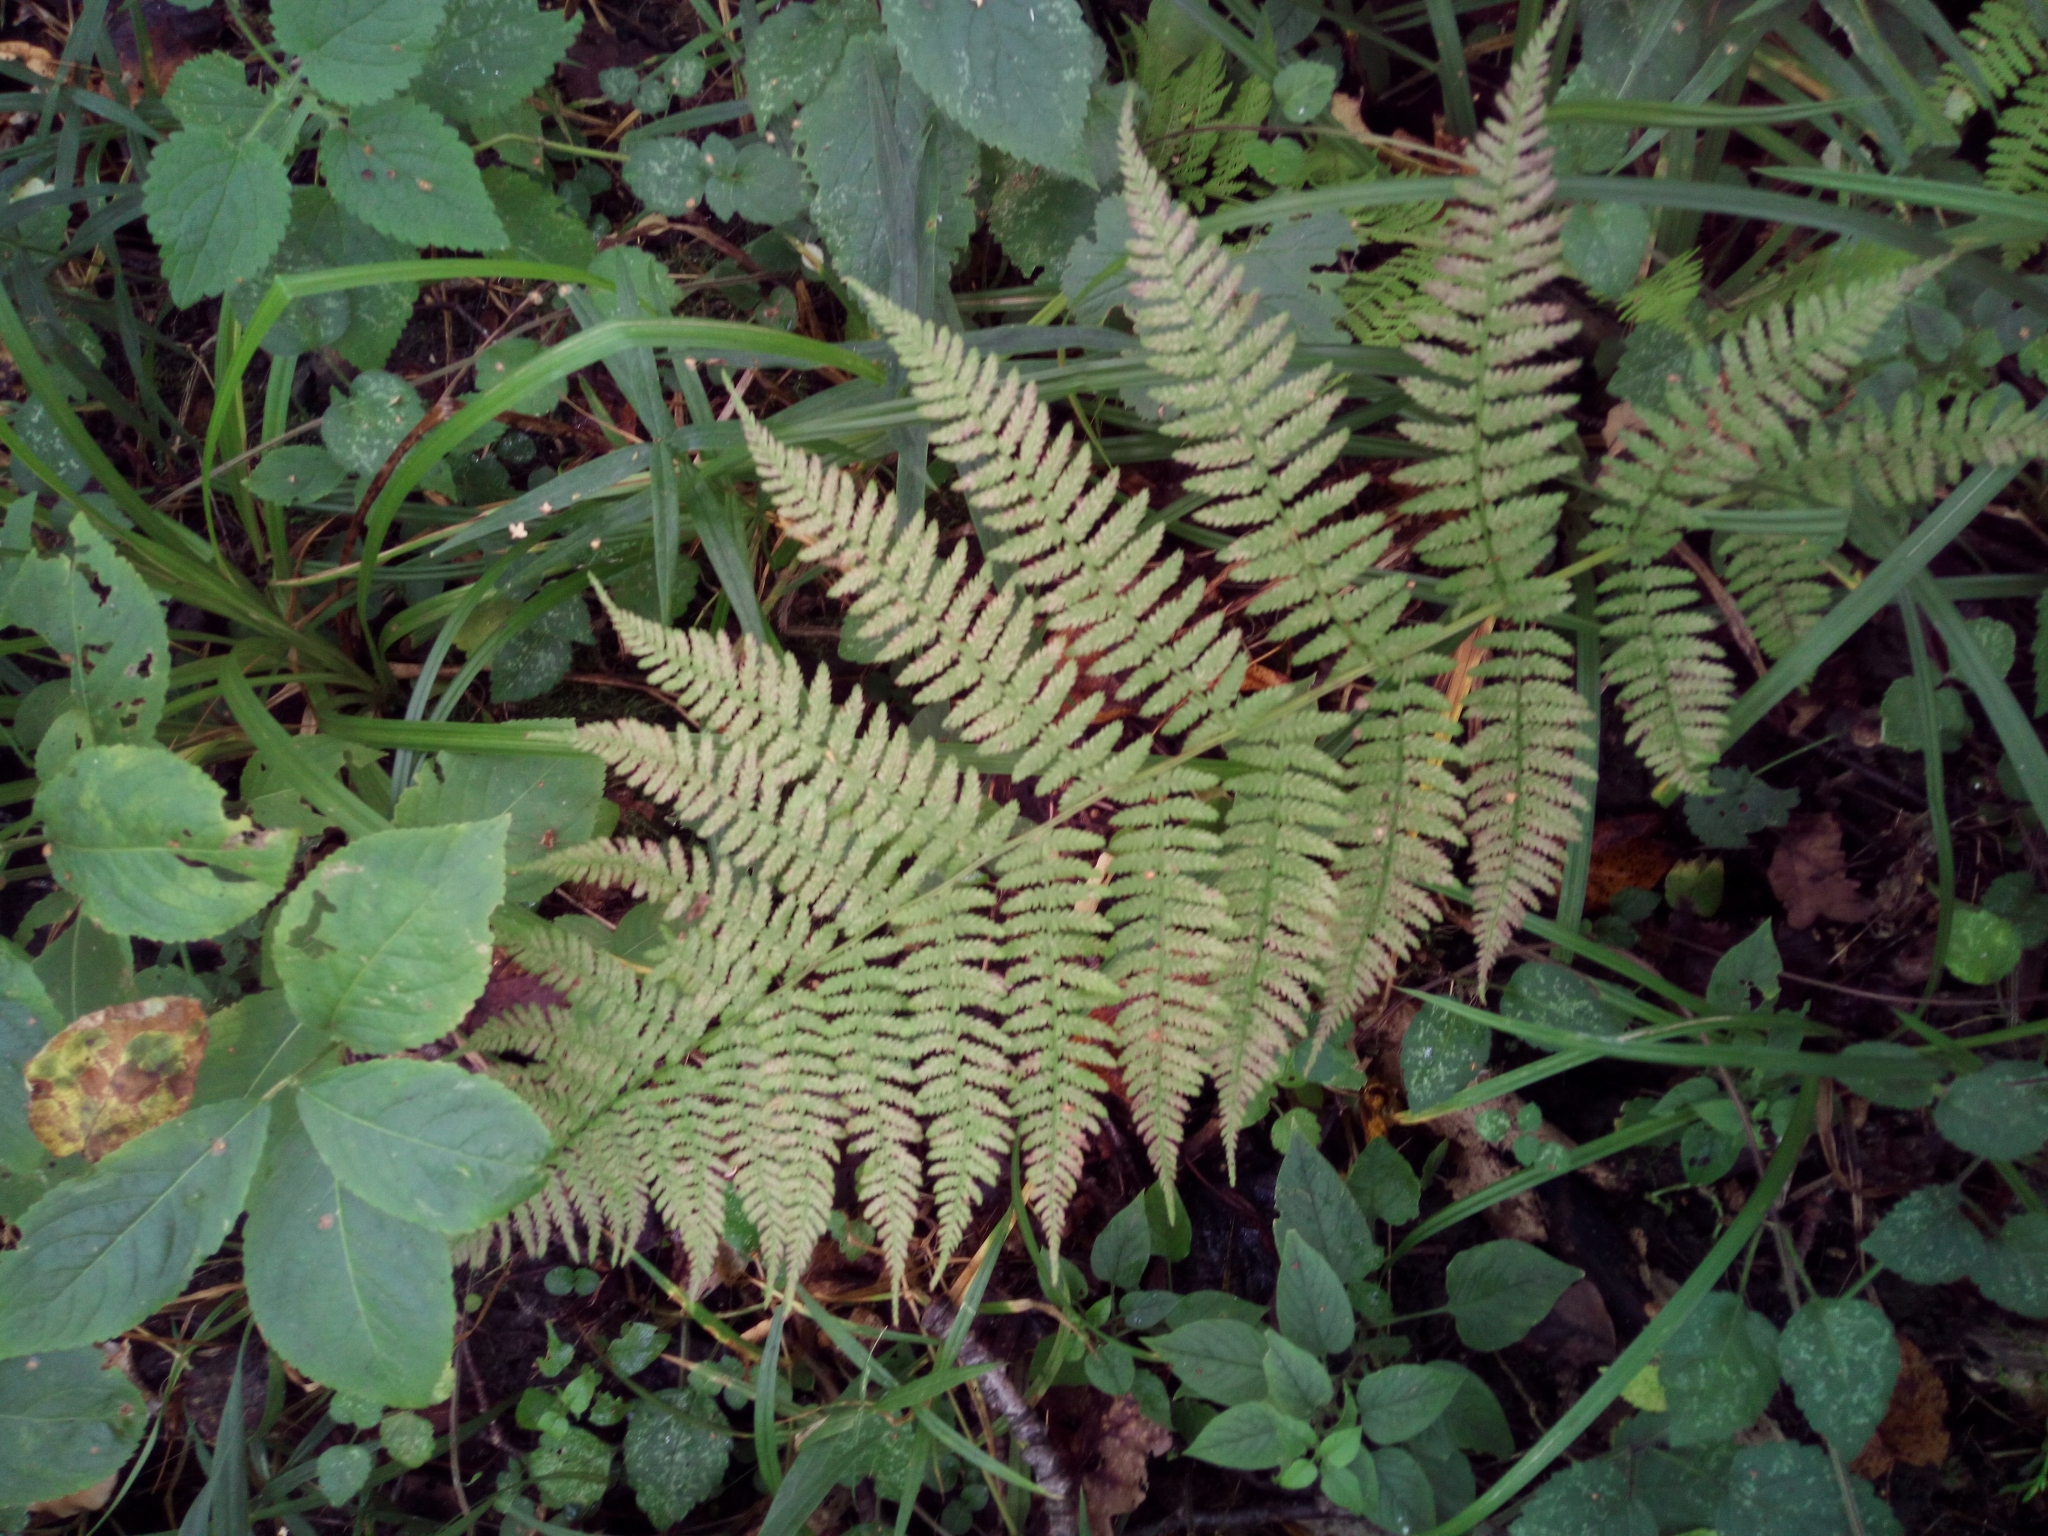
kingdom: Plantae
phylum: Tracheophyta
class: Polypodiopsida
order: Polypodiales
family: Athyriaceae
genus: Athyrium
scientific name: Athyrium filix-femina
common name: Lady fern
